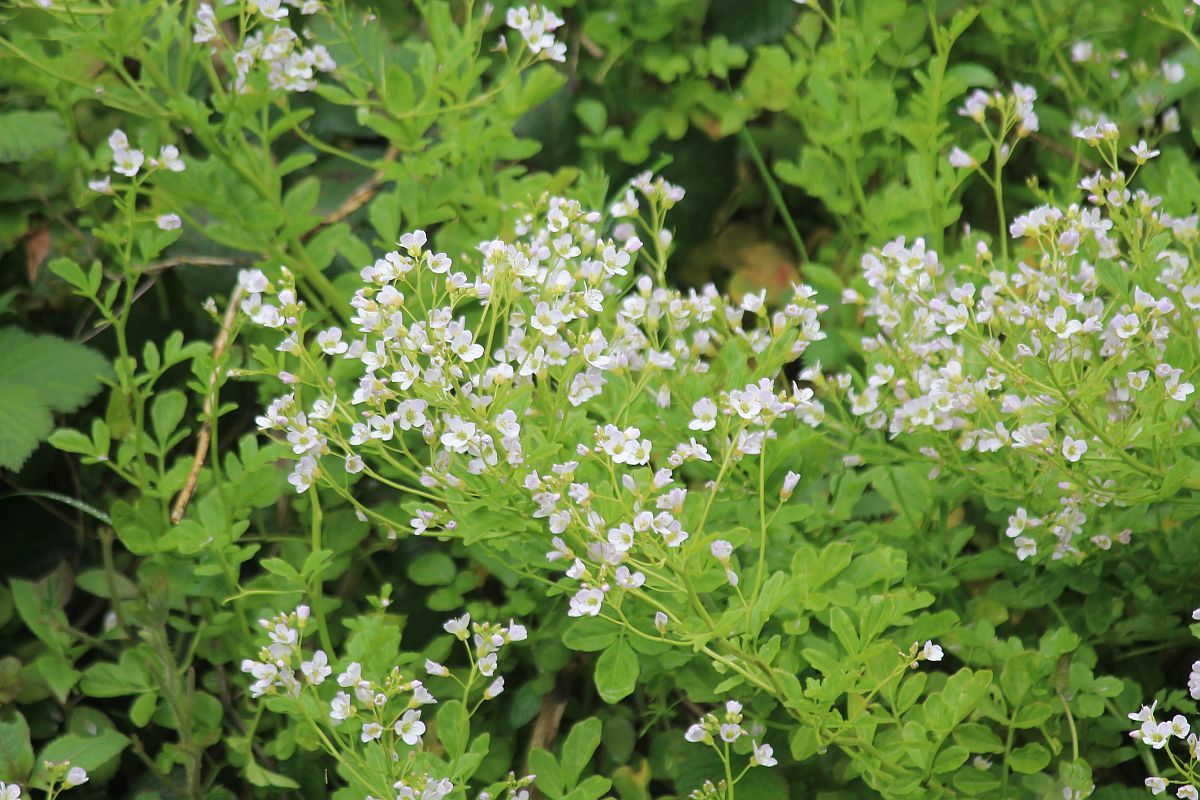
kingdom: Plantae
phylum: Tracheophyta
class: Magnoliopsida
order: Brassicales
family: Brassicaceae
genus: Cardamine
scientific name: Cardamine amara
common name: Large bitter-cress
